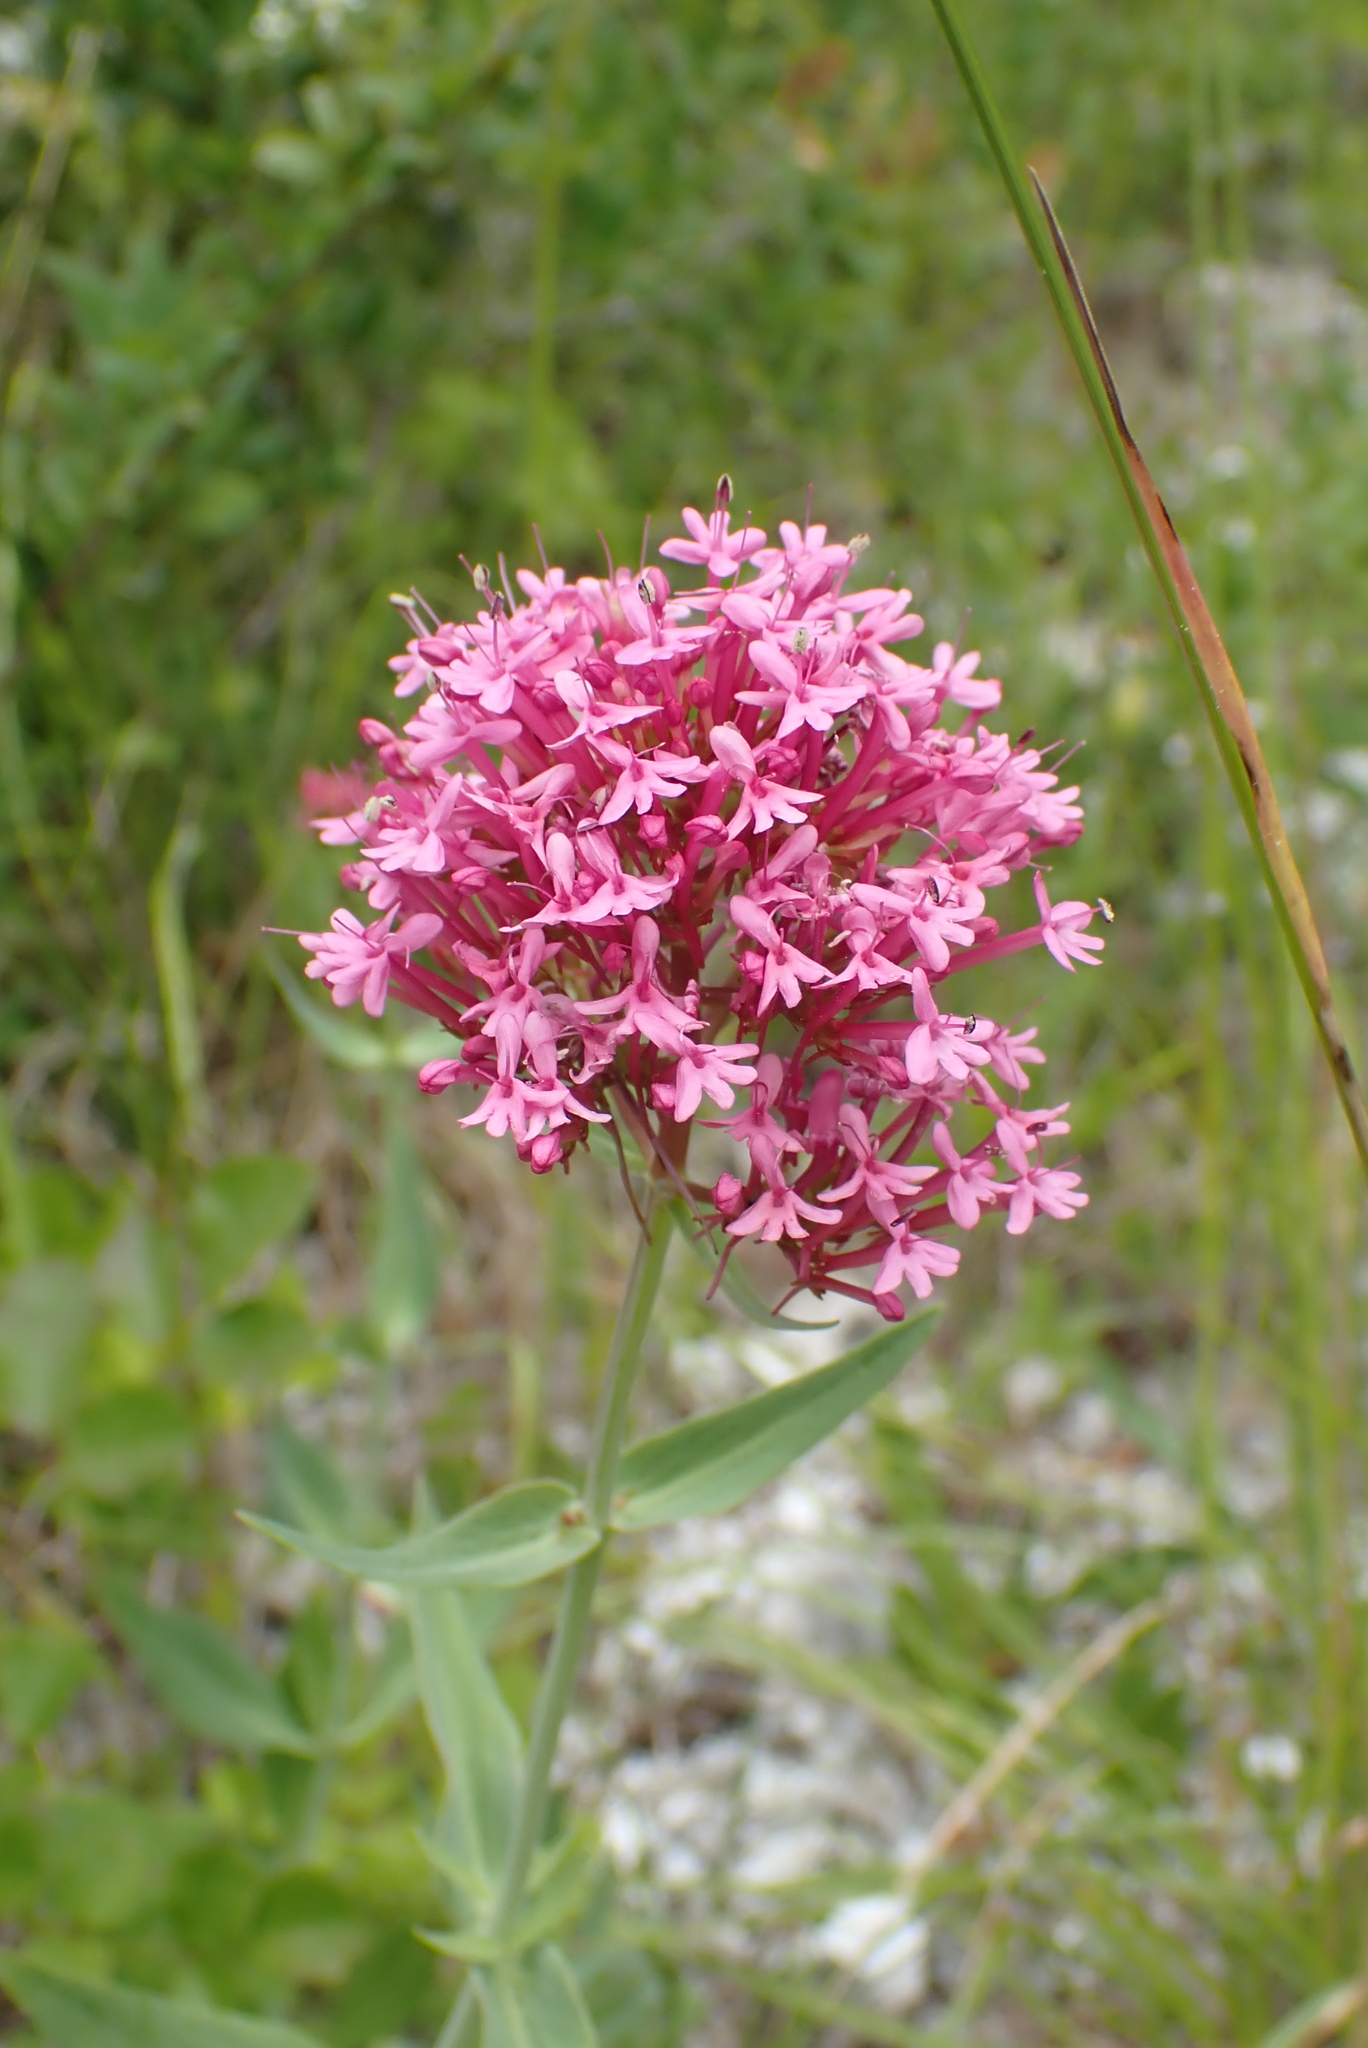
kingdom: Plantae
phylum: Tracheophyta
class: Magnoliopsida
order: Dipsacales
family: Caprifoliaceae
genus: Centranthus
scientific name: Centranthus ruber
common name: Red valerian
